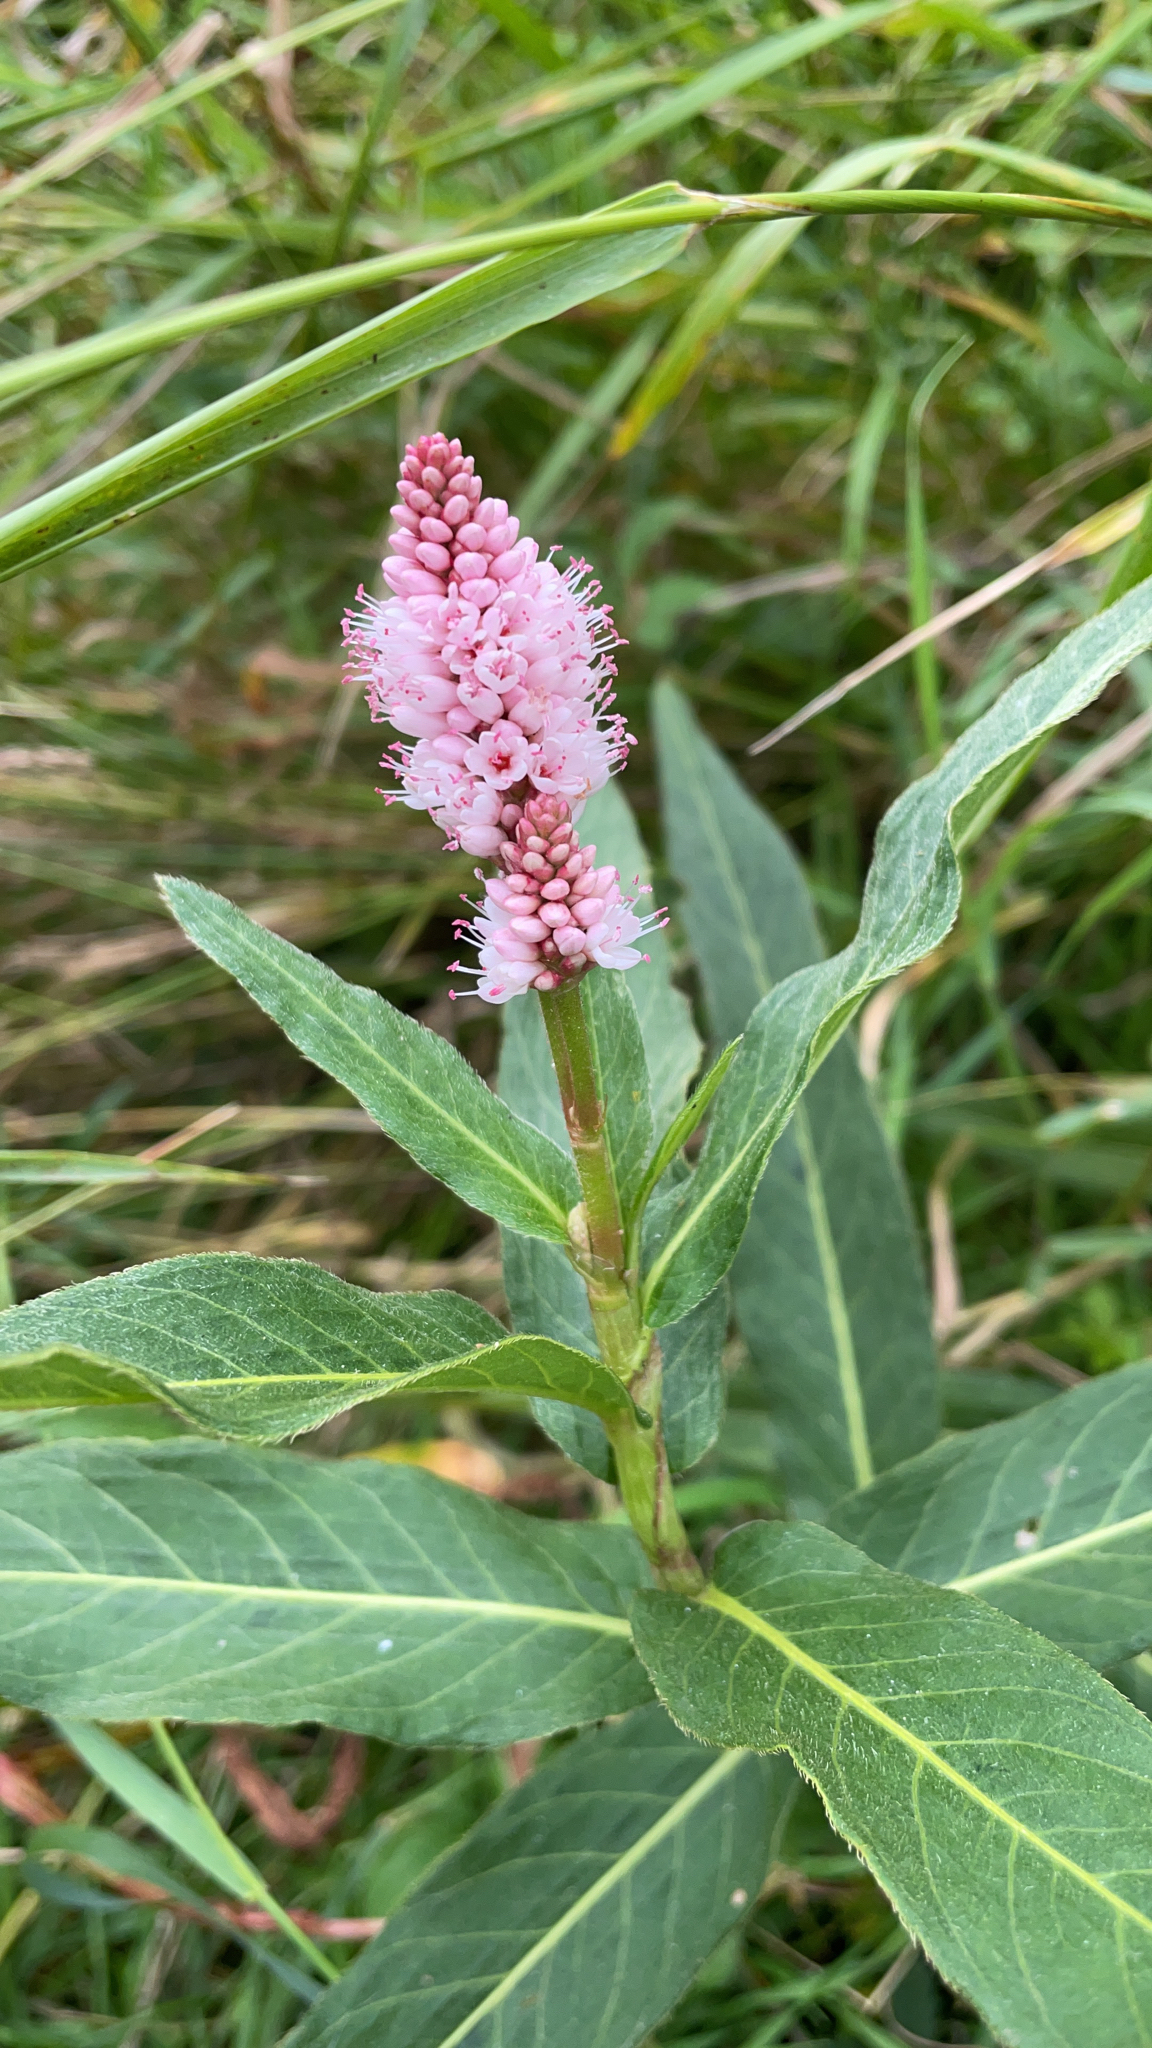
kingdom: Plantae
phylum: Tracheophyta
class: Magnoliopsida
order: Caryophyllales
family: Polygonaceae
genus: Persicaria
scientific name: Persicaria amphibia
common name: Amphibious bistort
